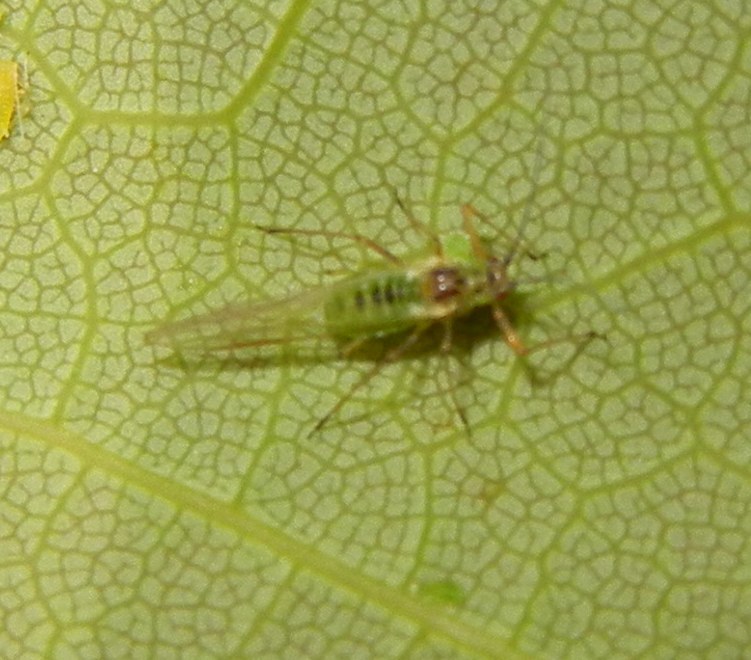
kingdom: Animalia
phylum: Arthropoda
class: Insecta
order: Hemiptera
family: Aphididae
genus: Drepanosiphum
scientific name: Drepanosiphum platanoidis
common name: Common sycamore aphid
